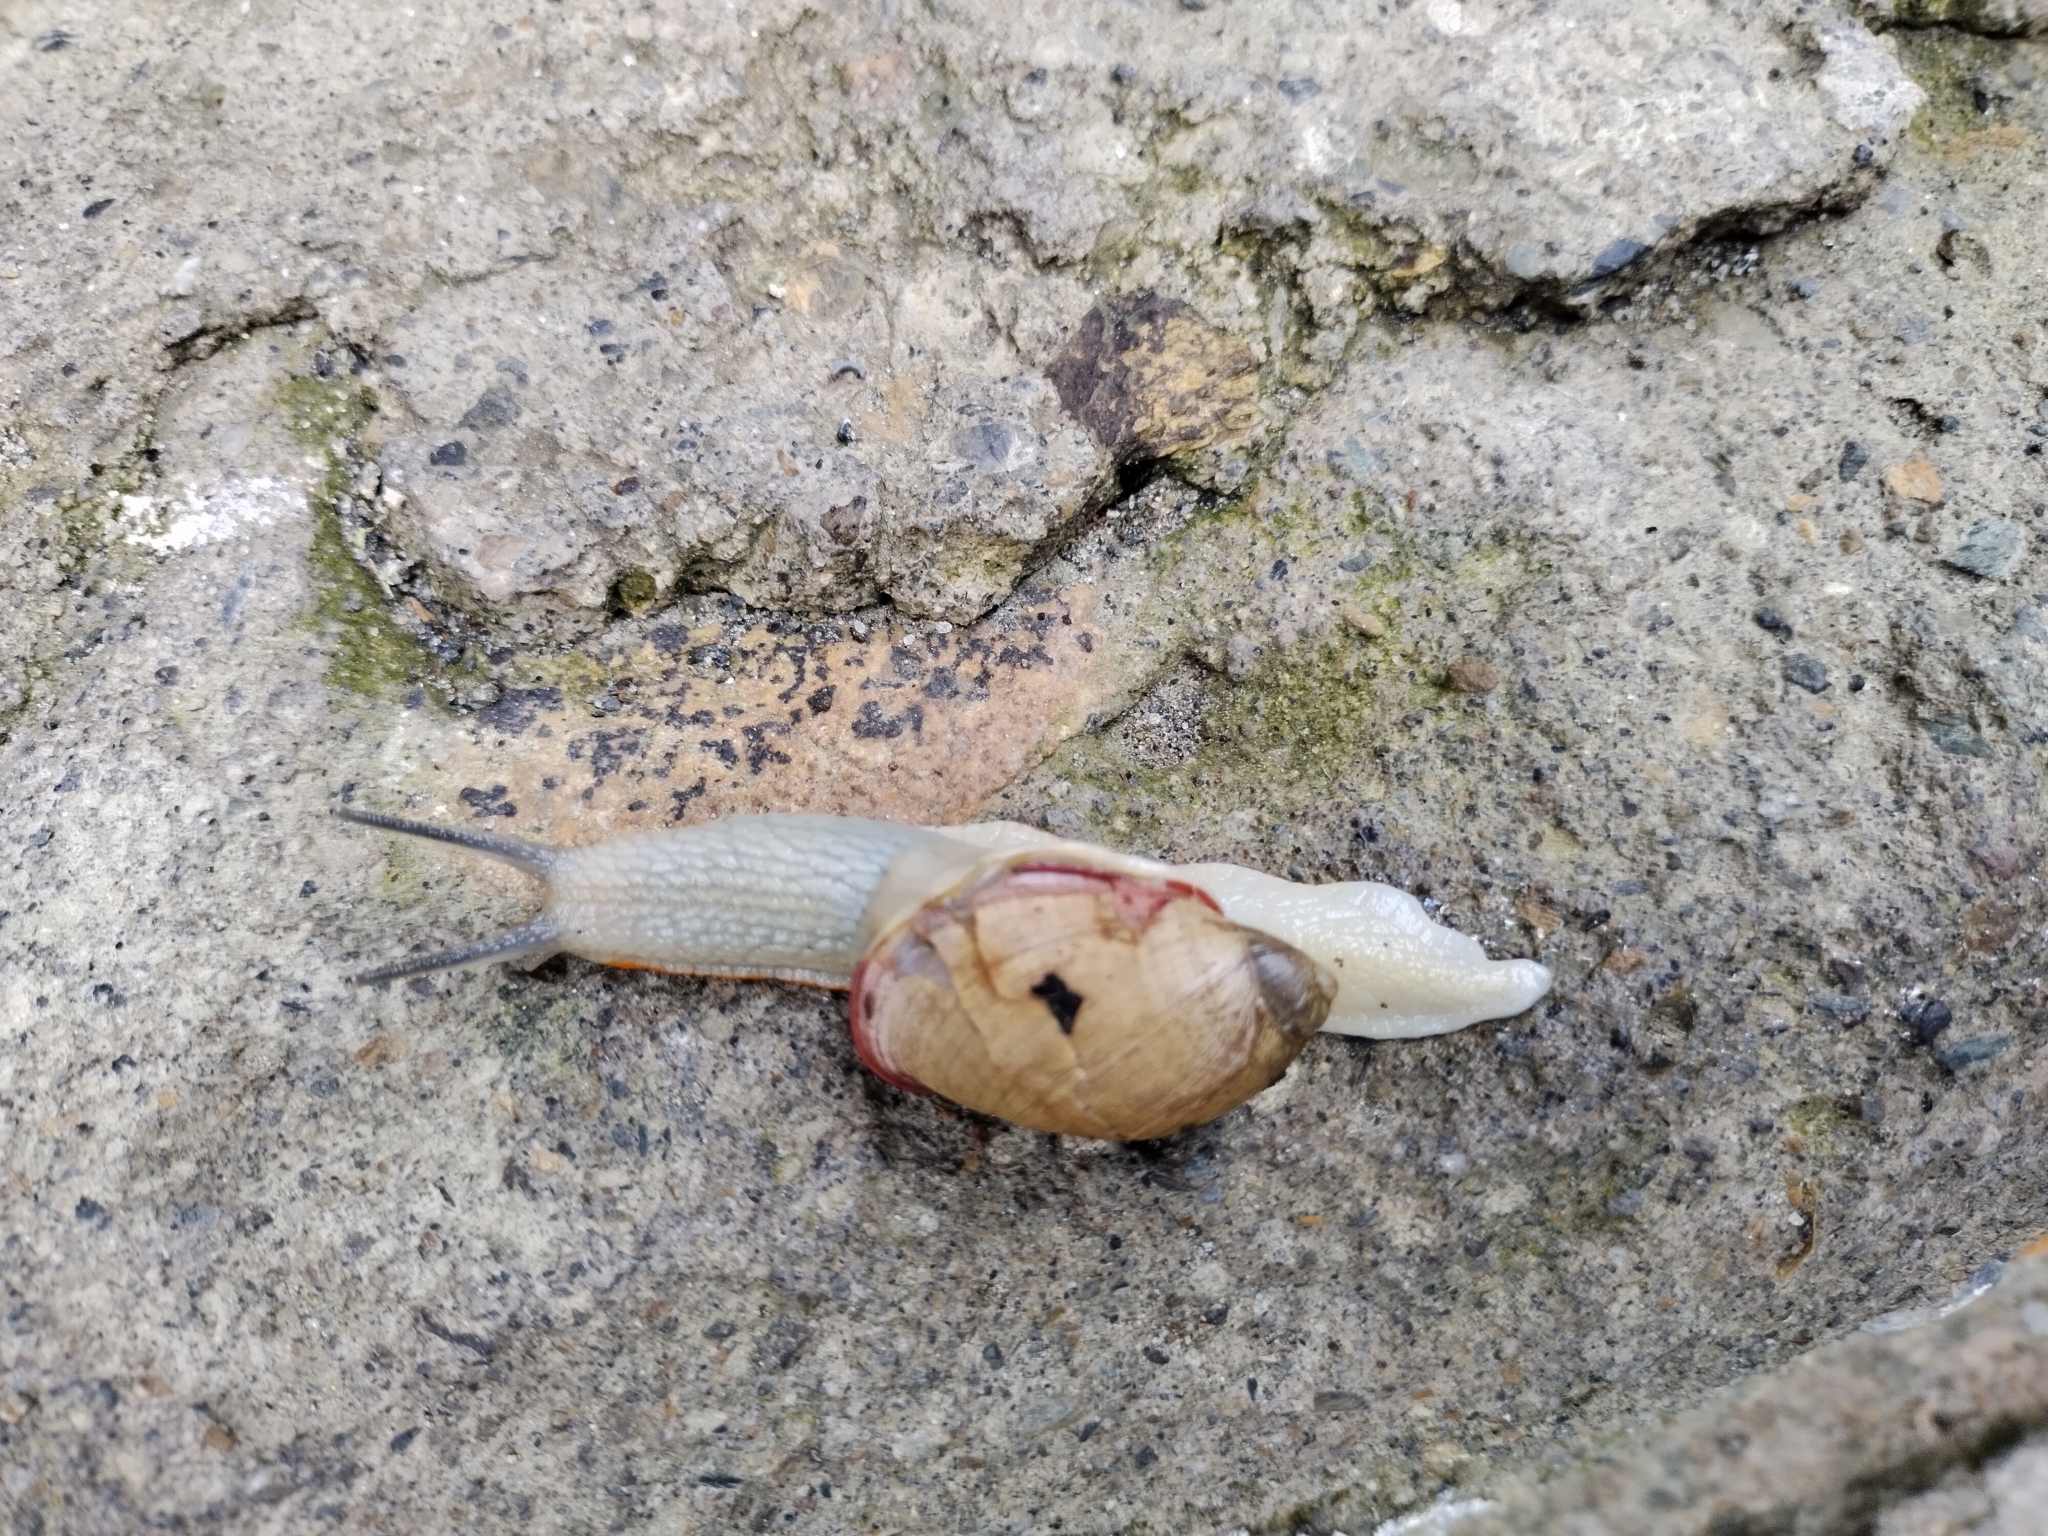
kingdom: Animalia
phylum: Mollusca
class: Gastropoda
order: Stylommatophora
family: Amphibulimidae
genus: Plekocheilus
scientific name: Plekocheilus calliostomus
